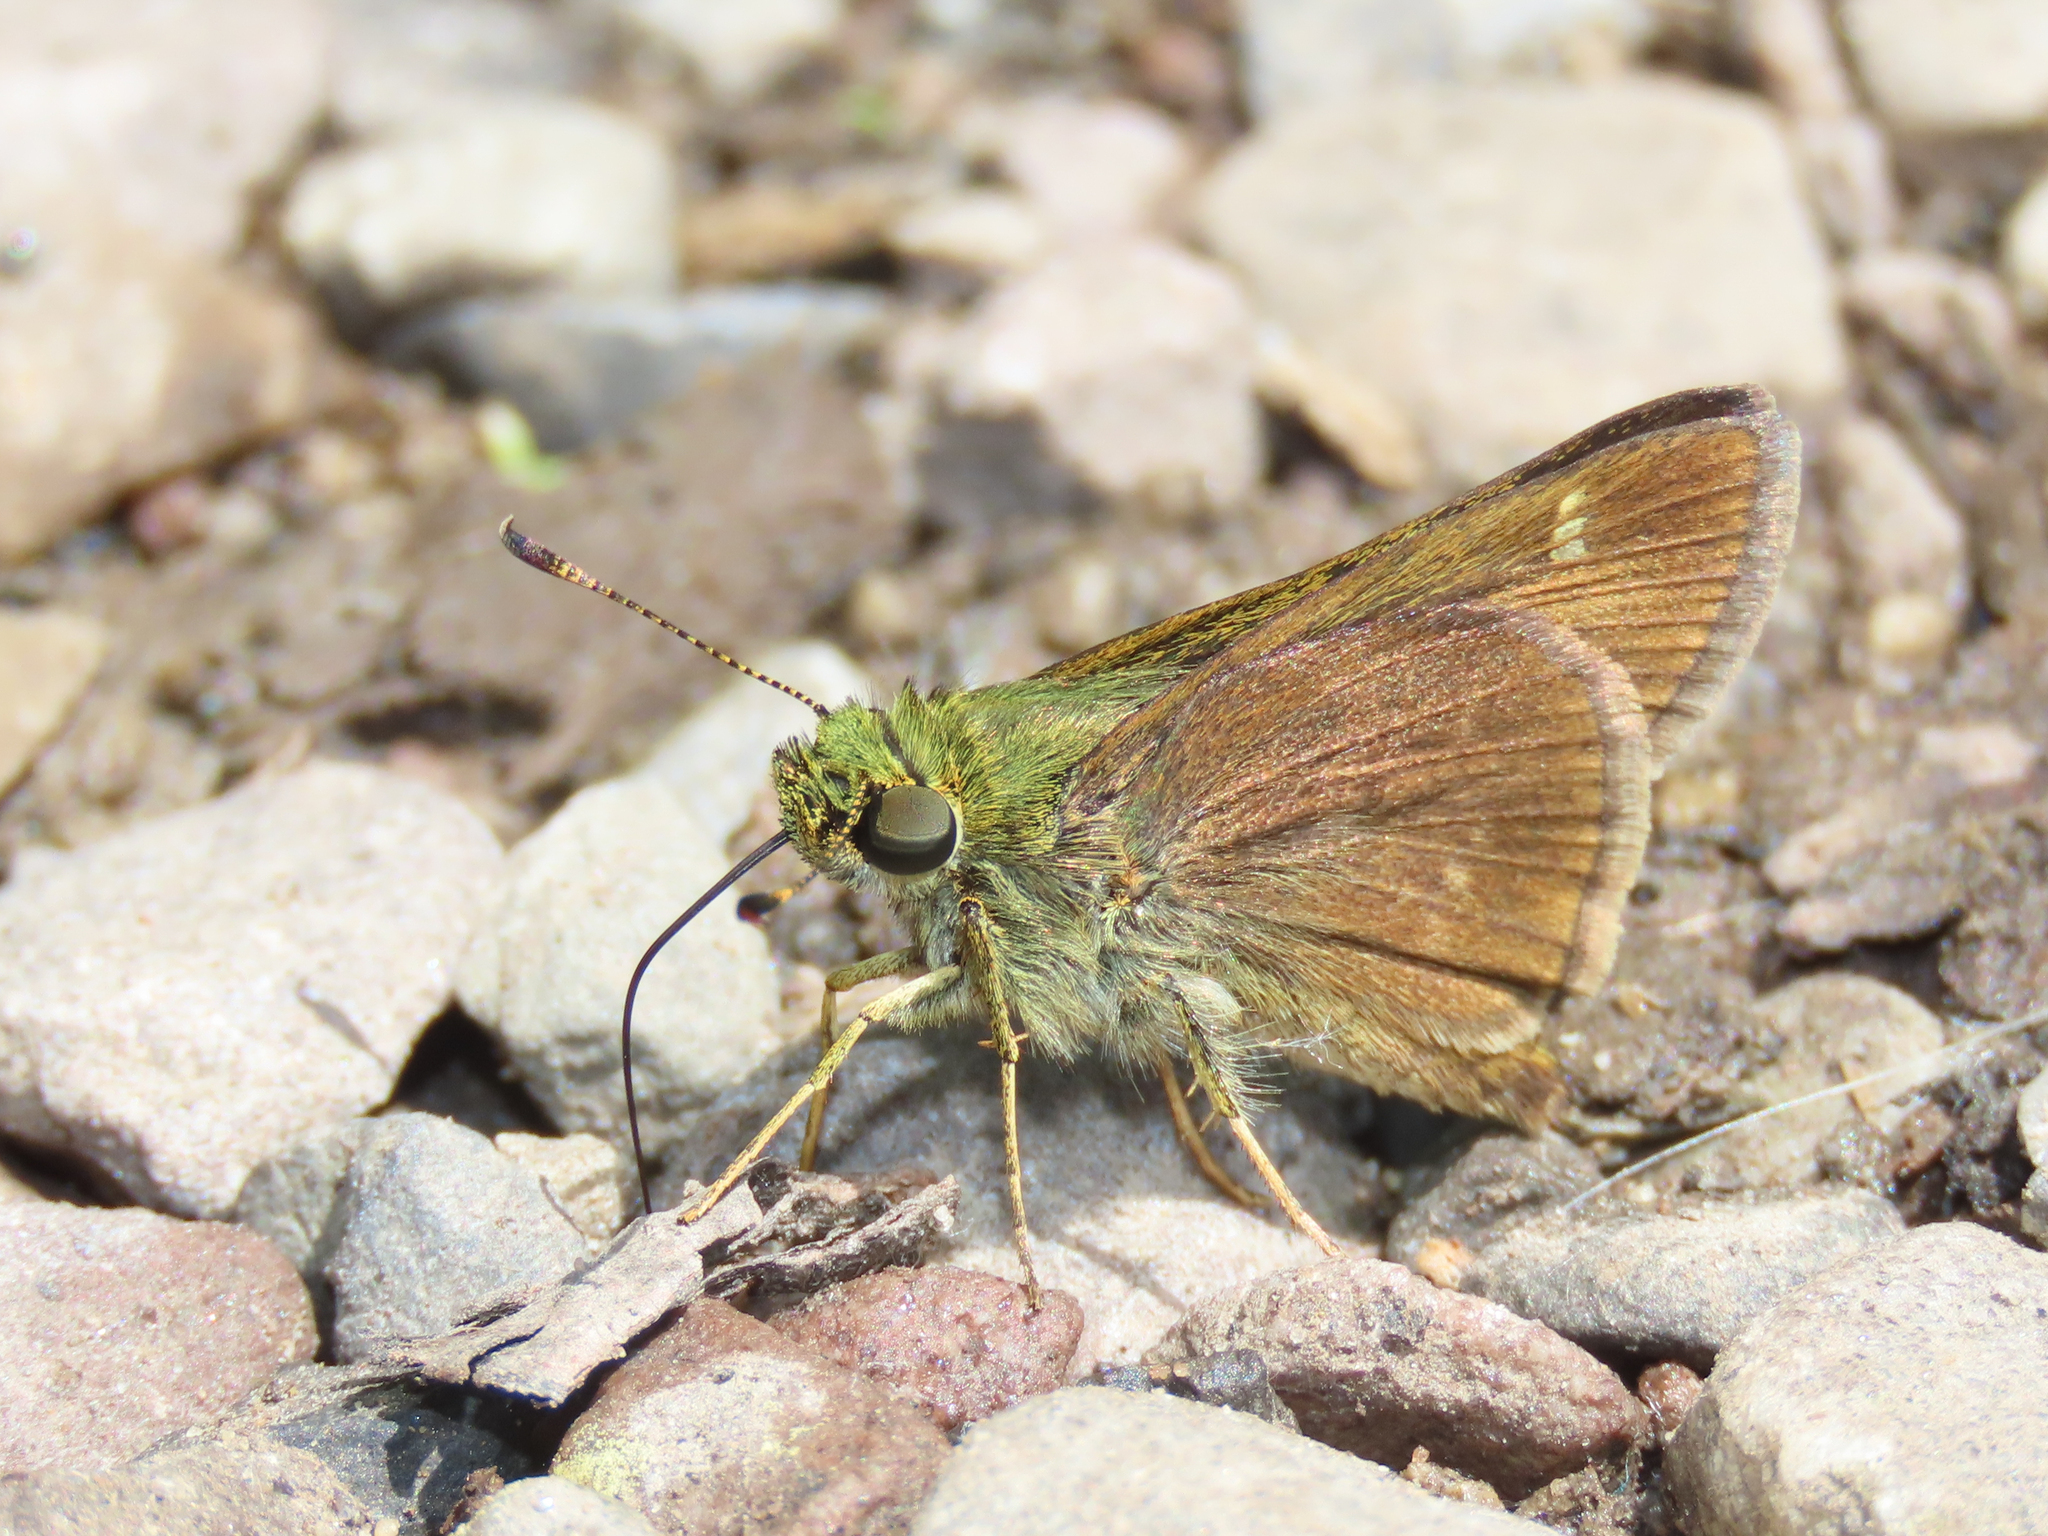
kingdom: Animalia
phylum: Arthropoda
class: Insecta
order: Lepidoptera
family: Hesperiidae
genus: Vernia
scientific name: Vernia verna
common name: Little glassywing
